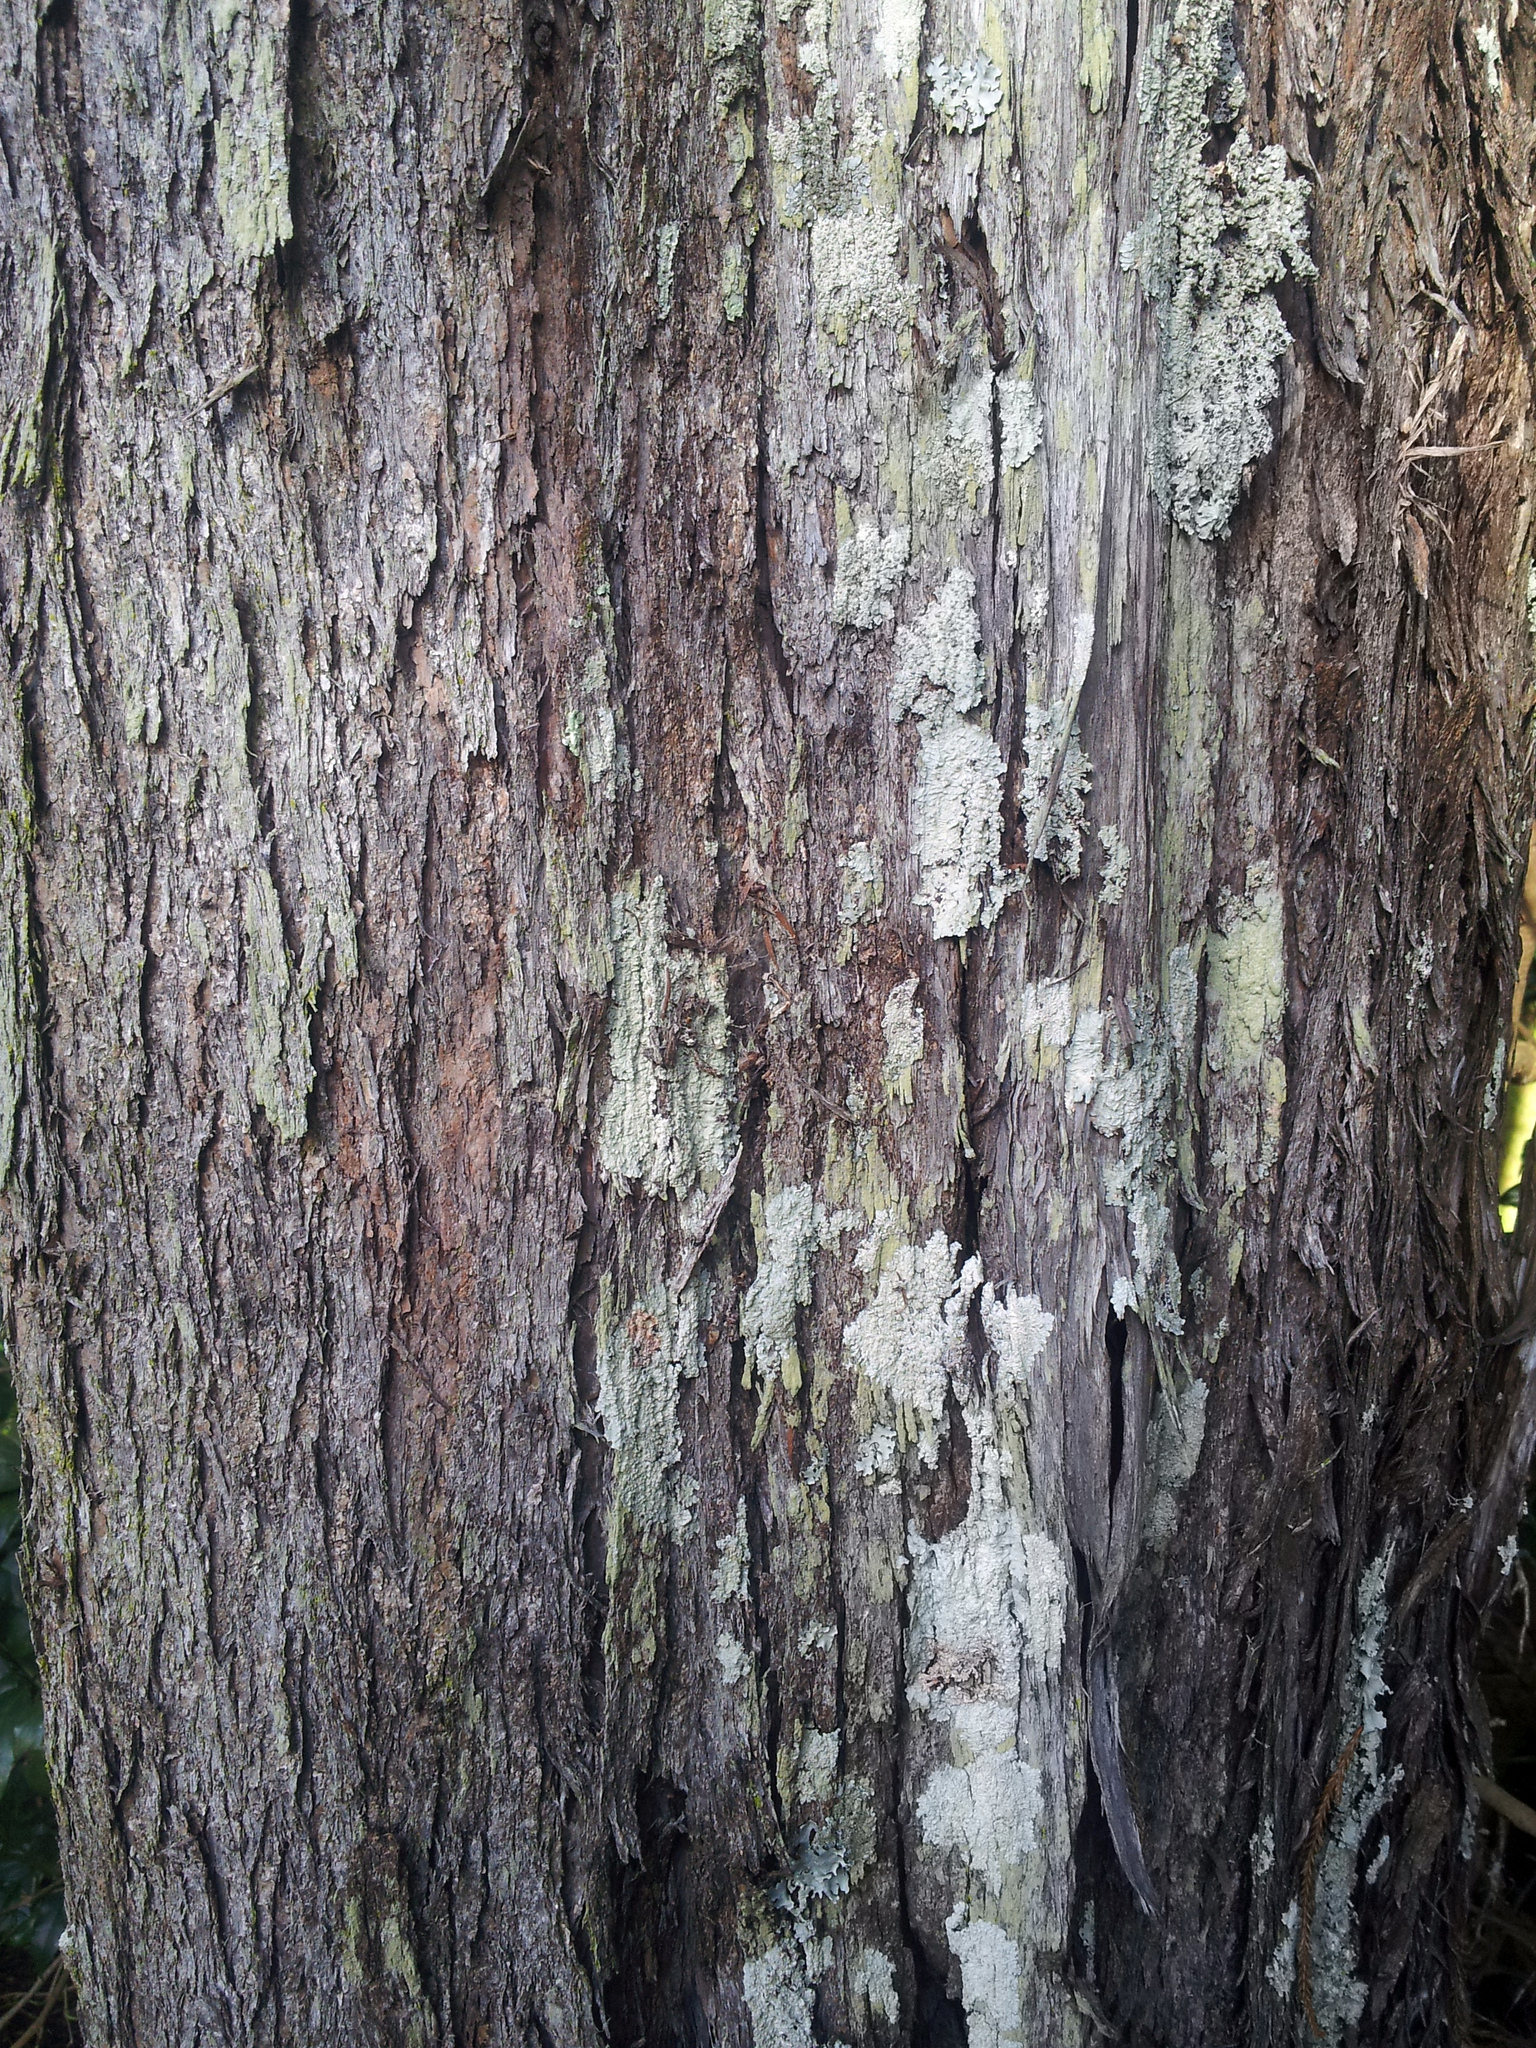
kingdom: Plantae
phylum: Tracheophyta
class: Magnoliopsida
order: Myrtales
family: Myrtaceae
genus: Kunzea
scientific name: Kunzea robusta
